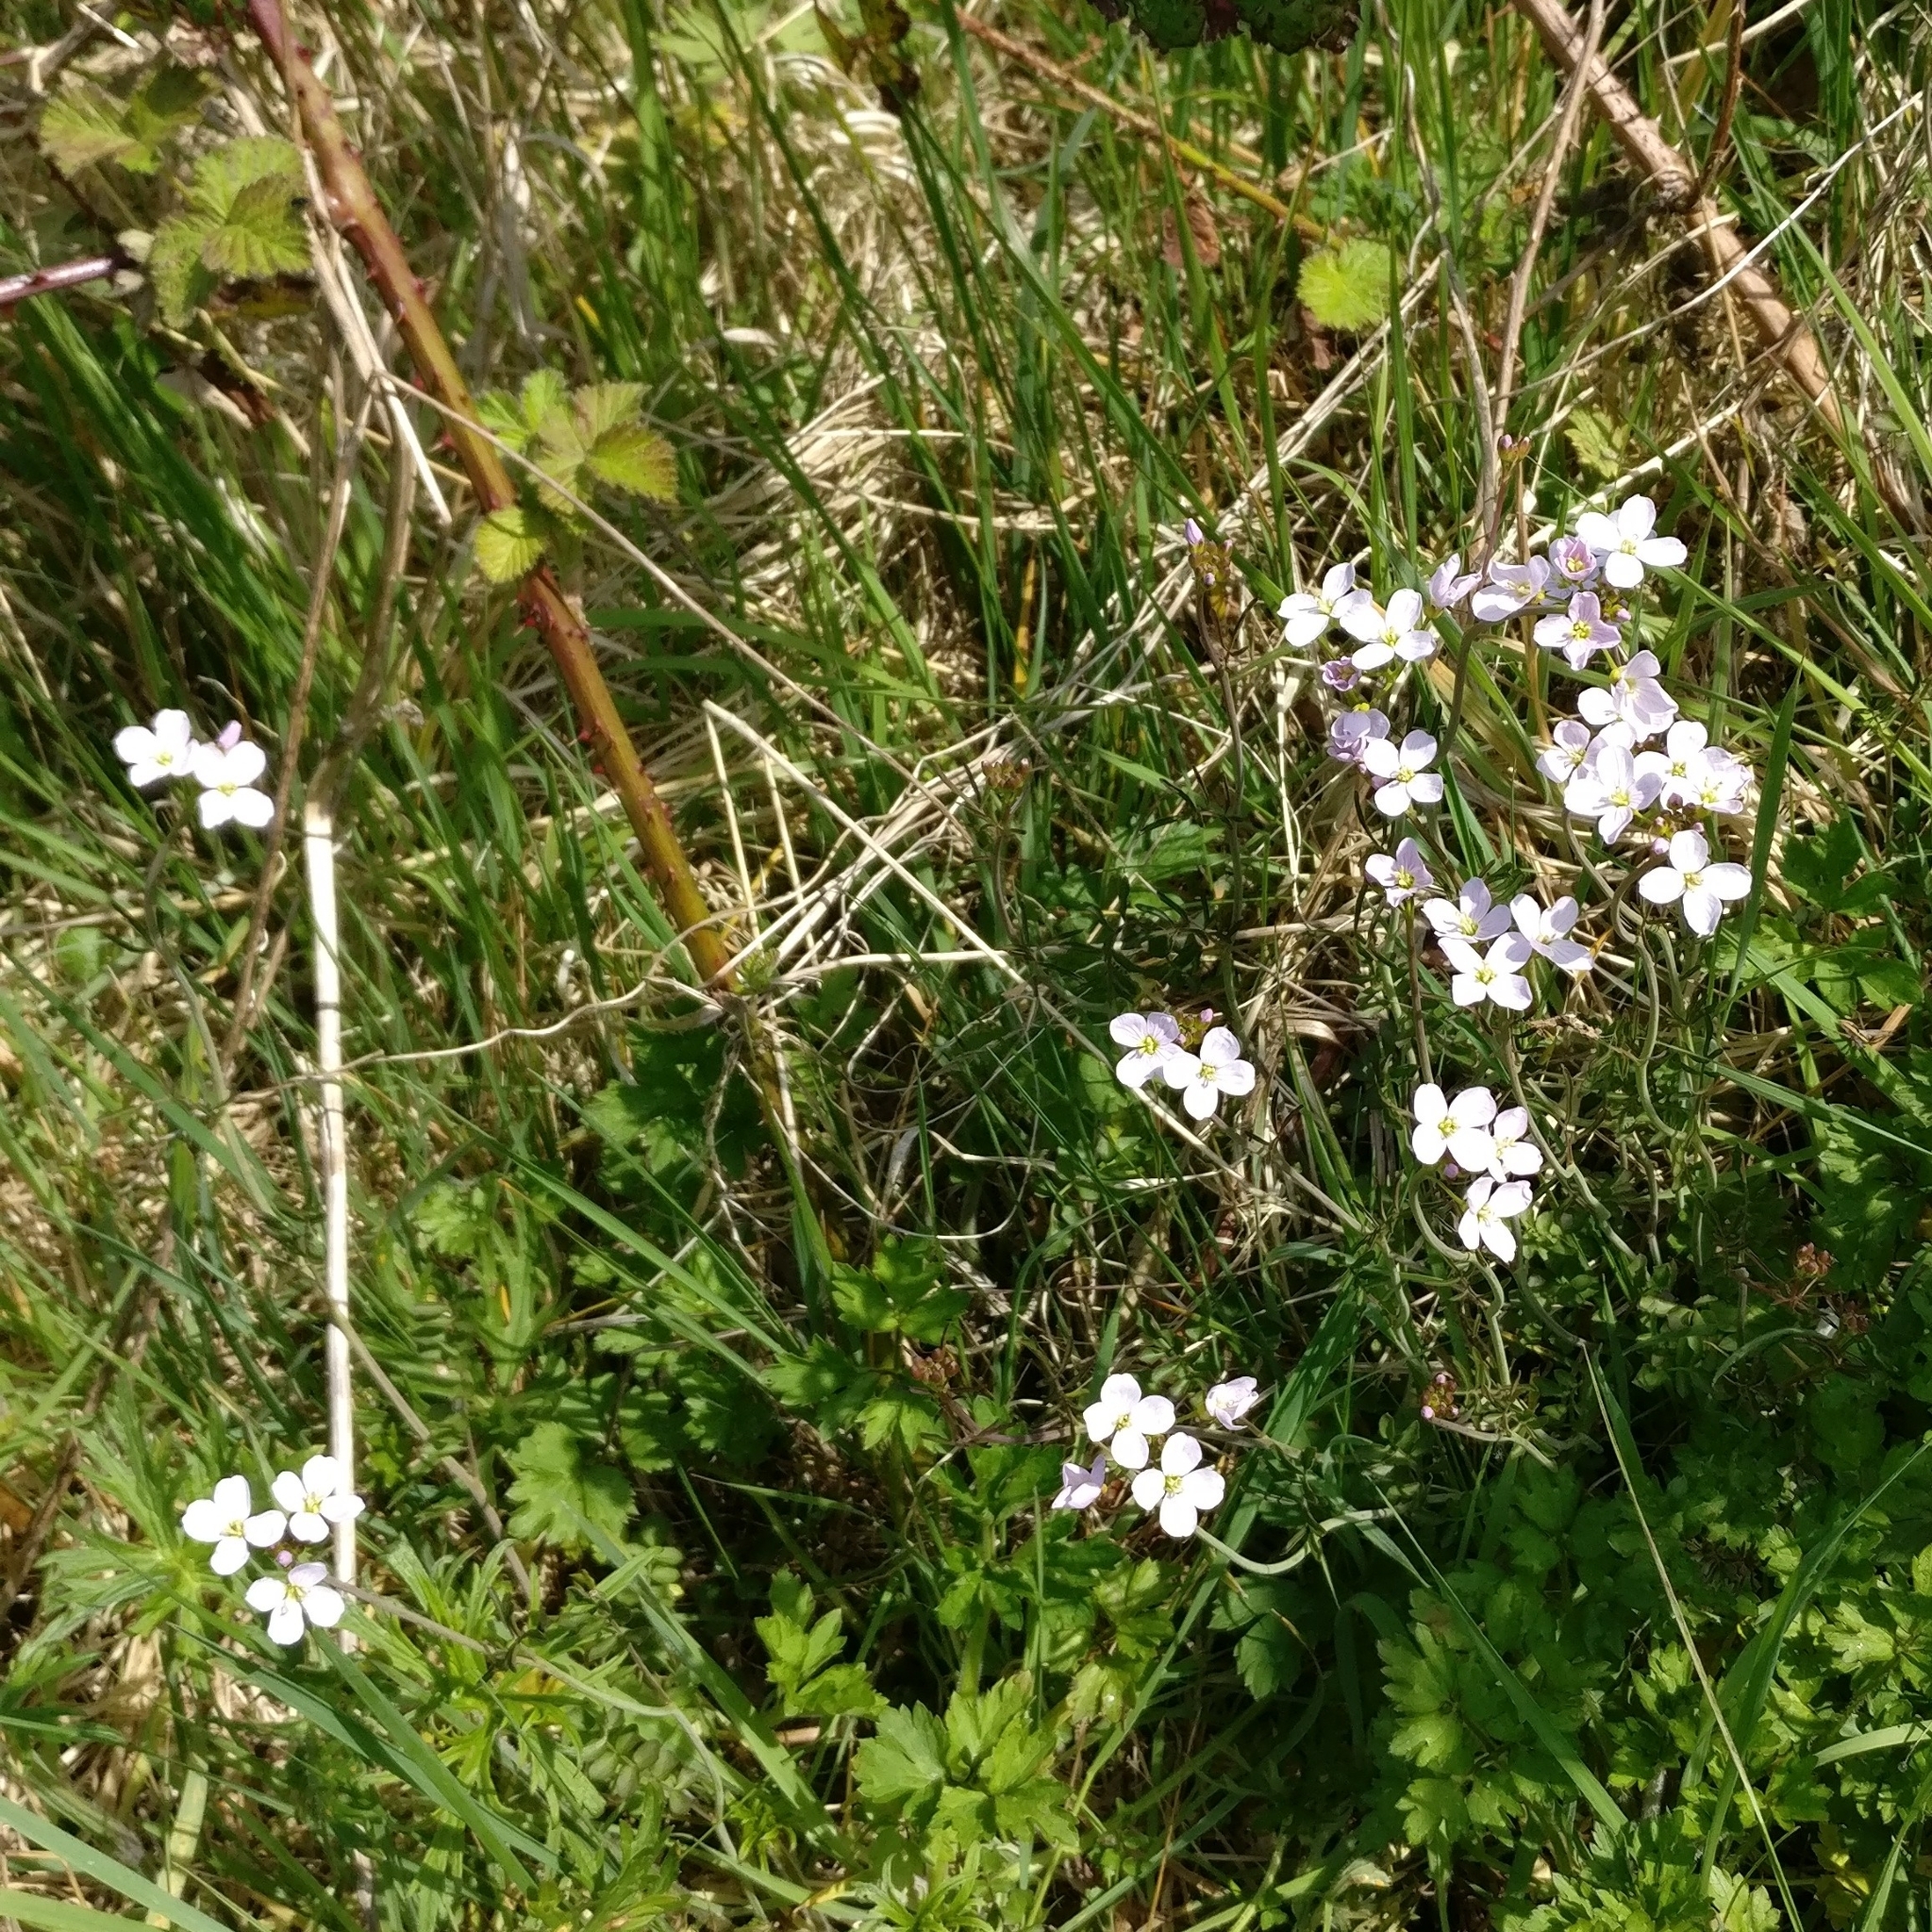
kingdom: Plantae
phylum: Tracheophyta
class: Magnoliopsida
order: Brassicales
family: Brassicaceae
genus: Cardamine
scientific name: Cardamine pratensis
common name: Cuckoo flower
